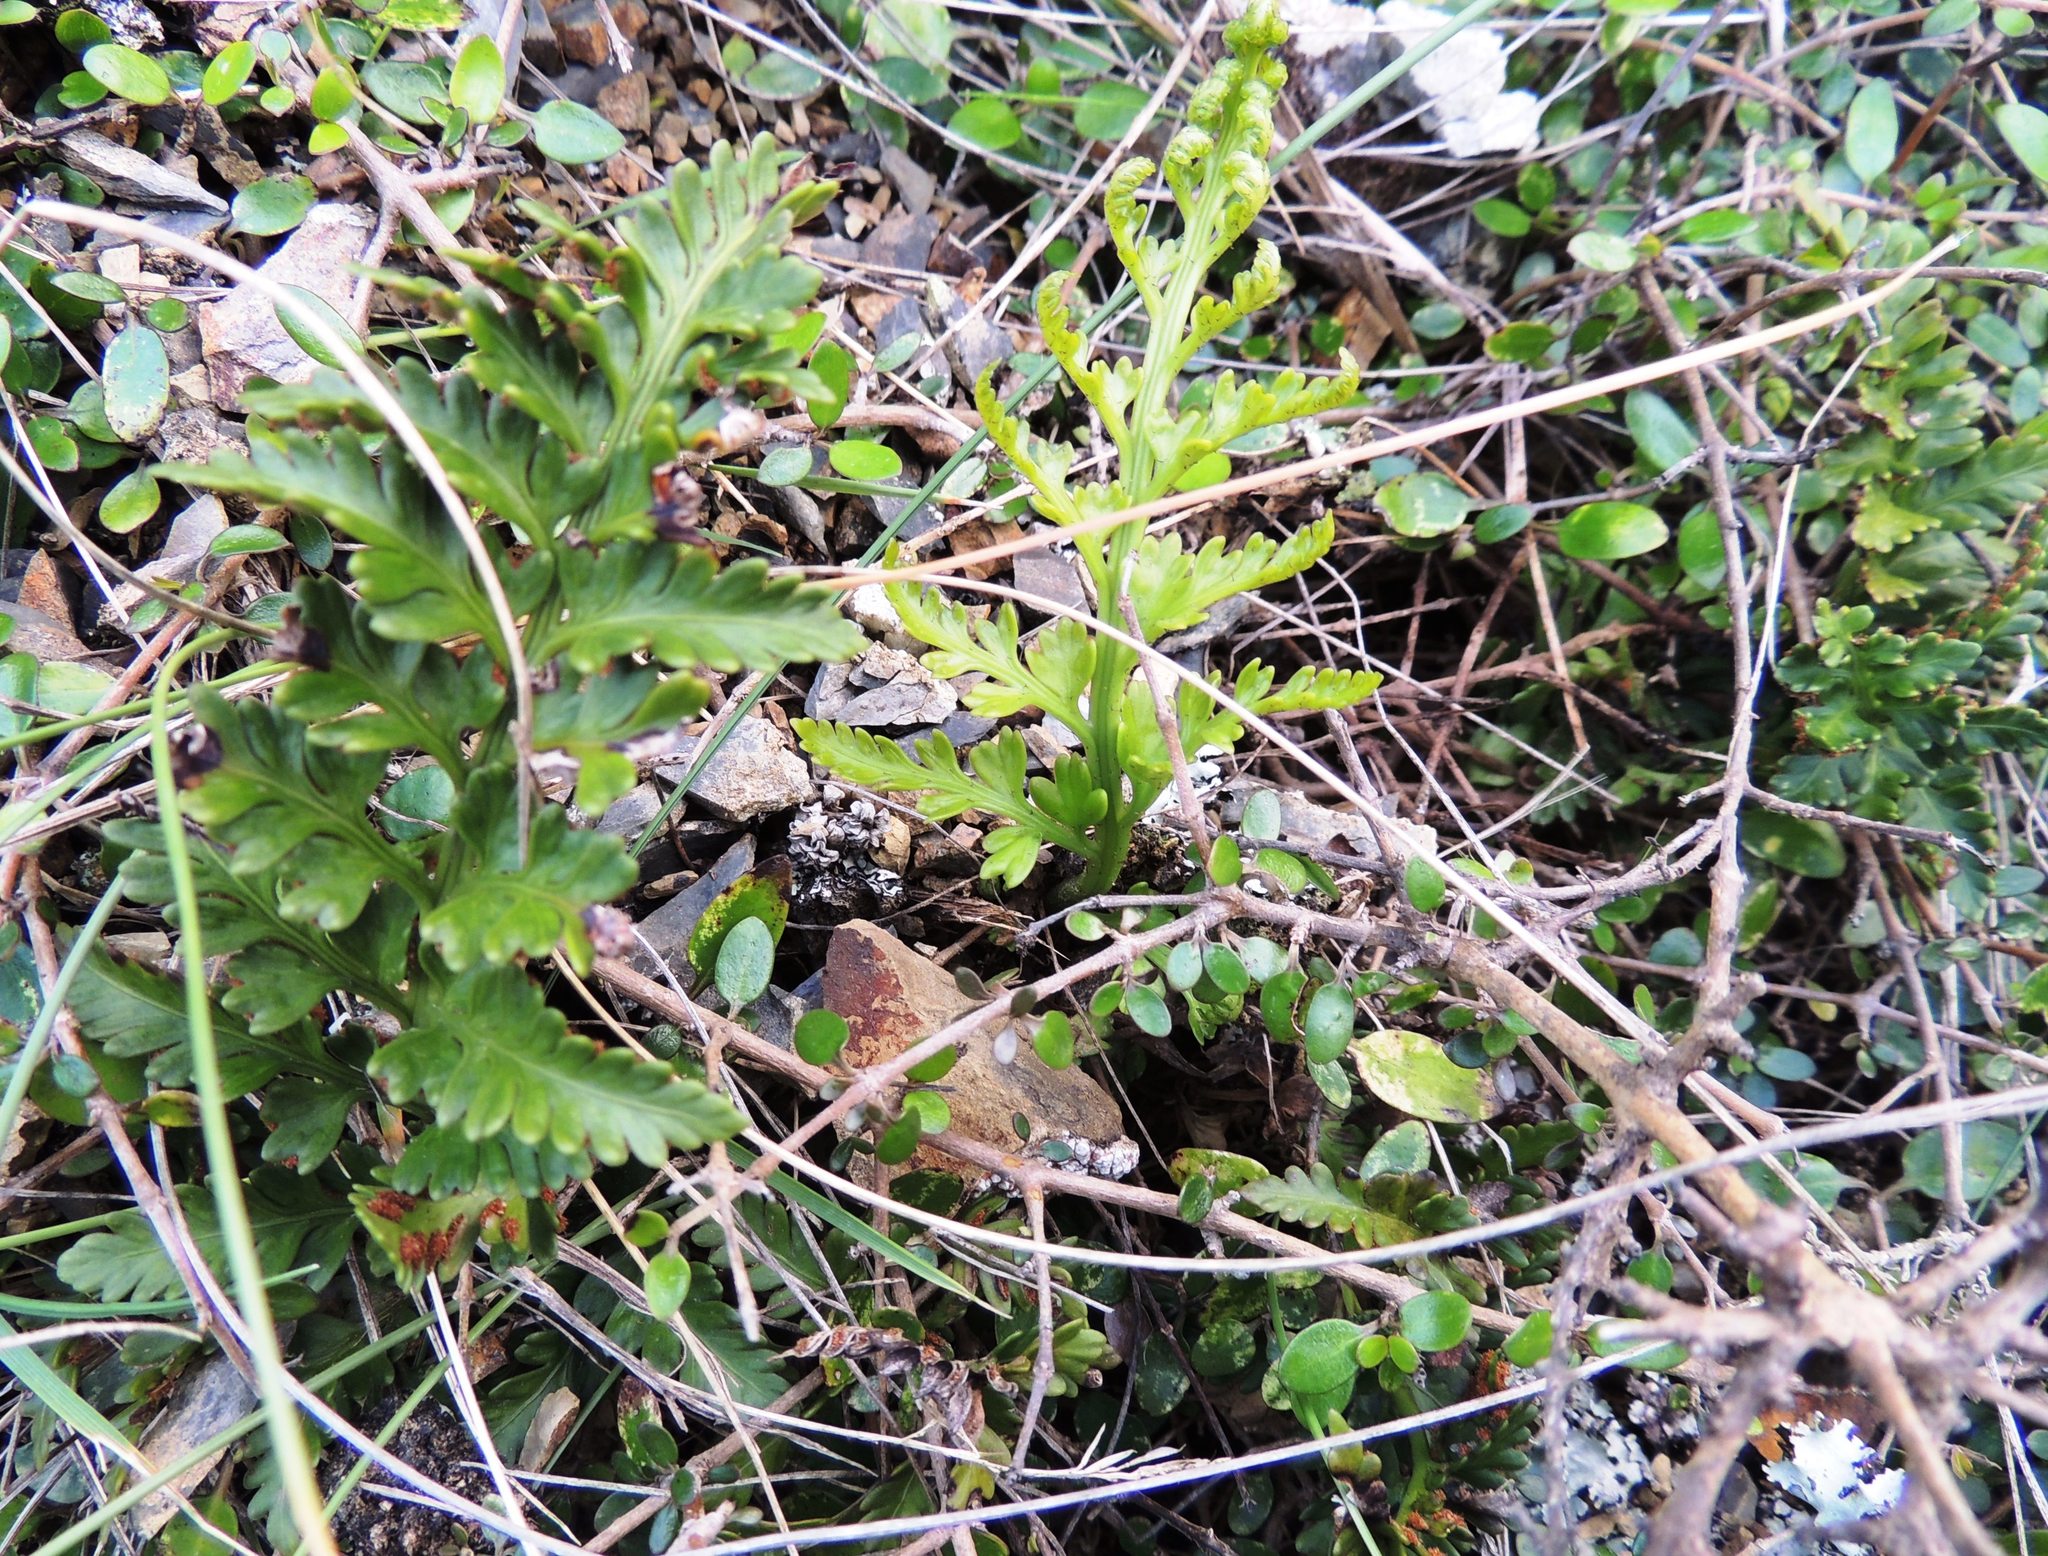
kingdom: Plantae
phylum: Tracheophyta
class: Polypodiopsida
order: Polypodiales
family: Aspleniaceae
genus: Asplenium
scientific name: Asplenium appendiculatum
